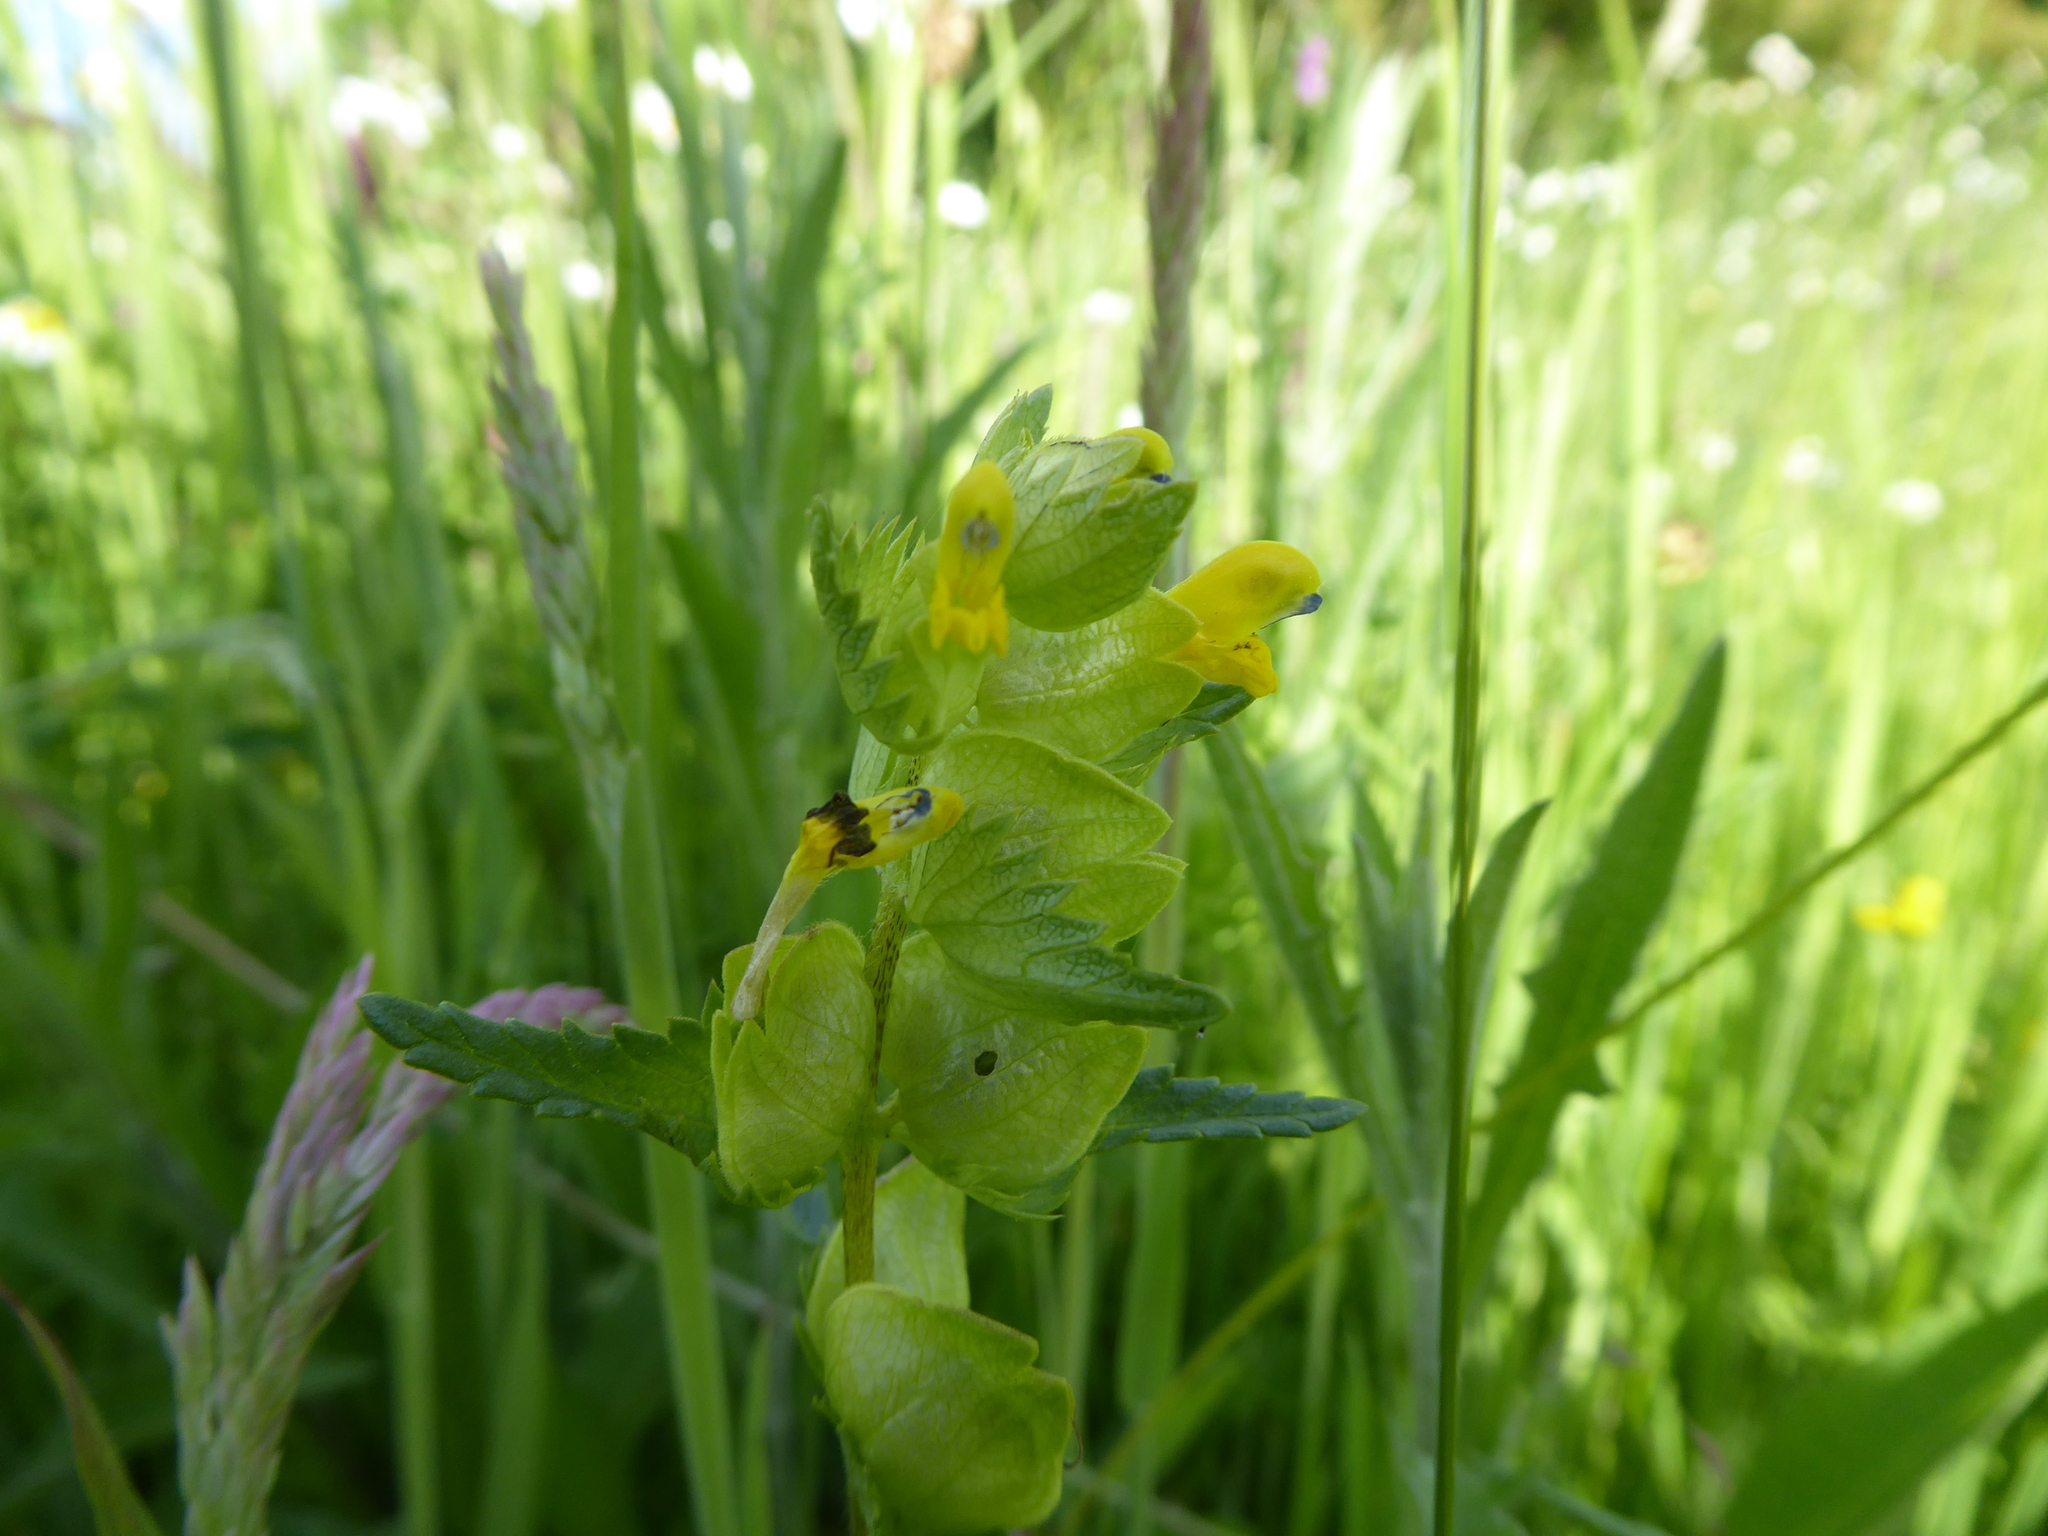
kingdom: Plantae
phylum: Tracheophyta
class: Magnoliopsida
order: Lamiales
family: Orobanchaceae
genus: Rhinanthus
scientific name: Rhinanthus minor
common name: Yellow-rattle
